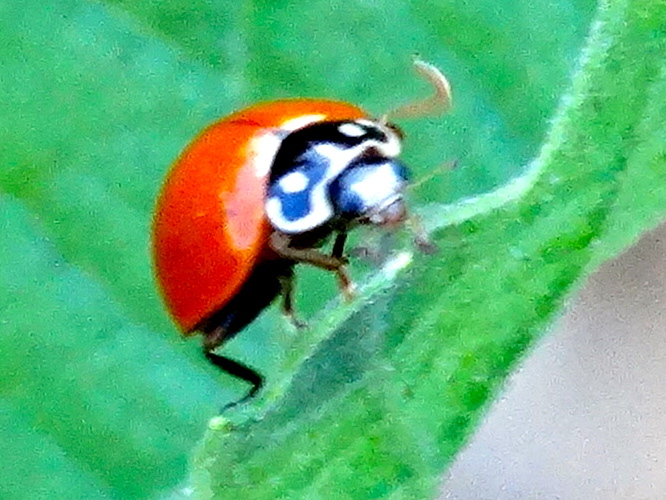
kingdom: Animalia
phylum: Arthropoda
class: Insecta
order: Coleoptera
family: Coccinellidae
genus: Cycloneda
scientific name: Cycloneda sanguinea
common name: Ladybird beetle
